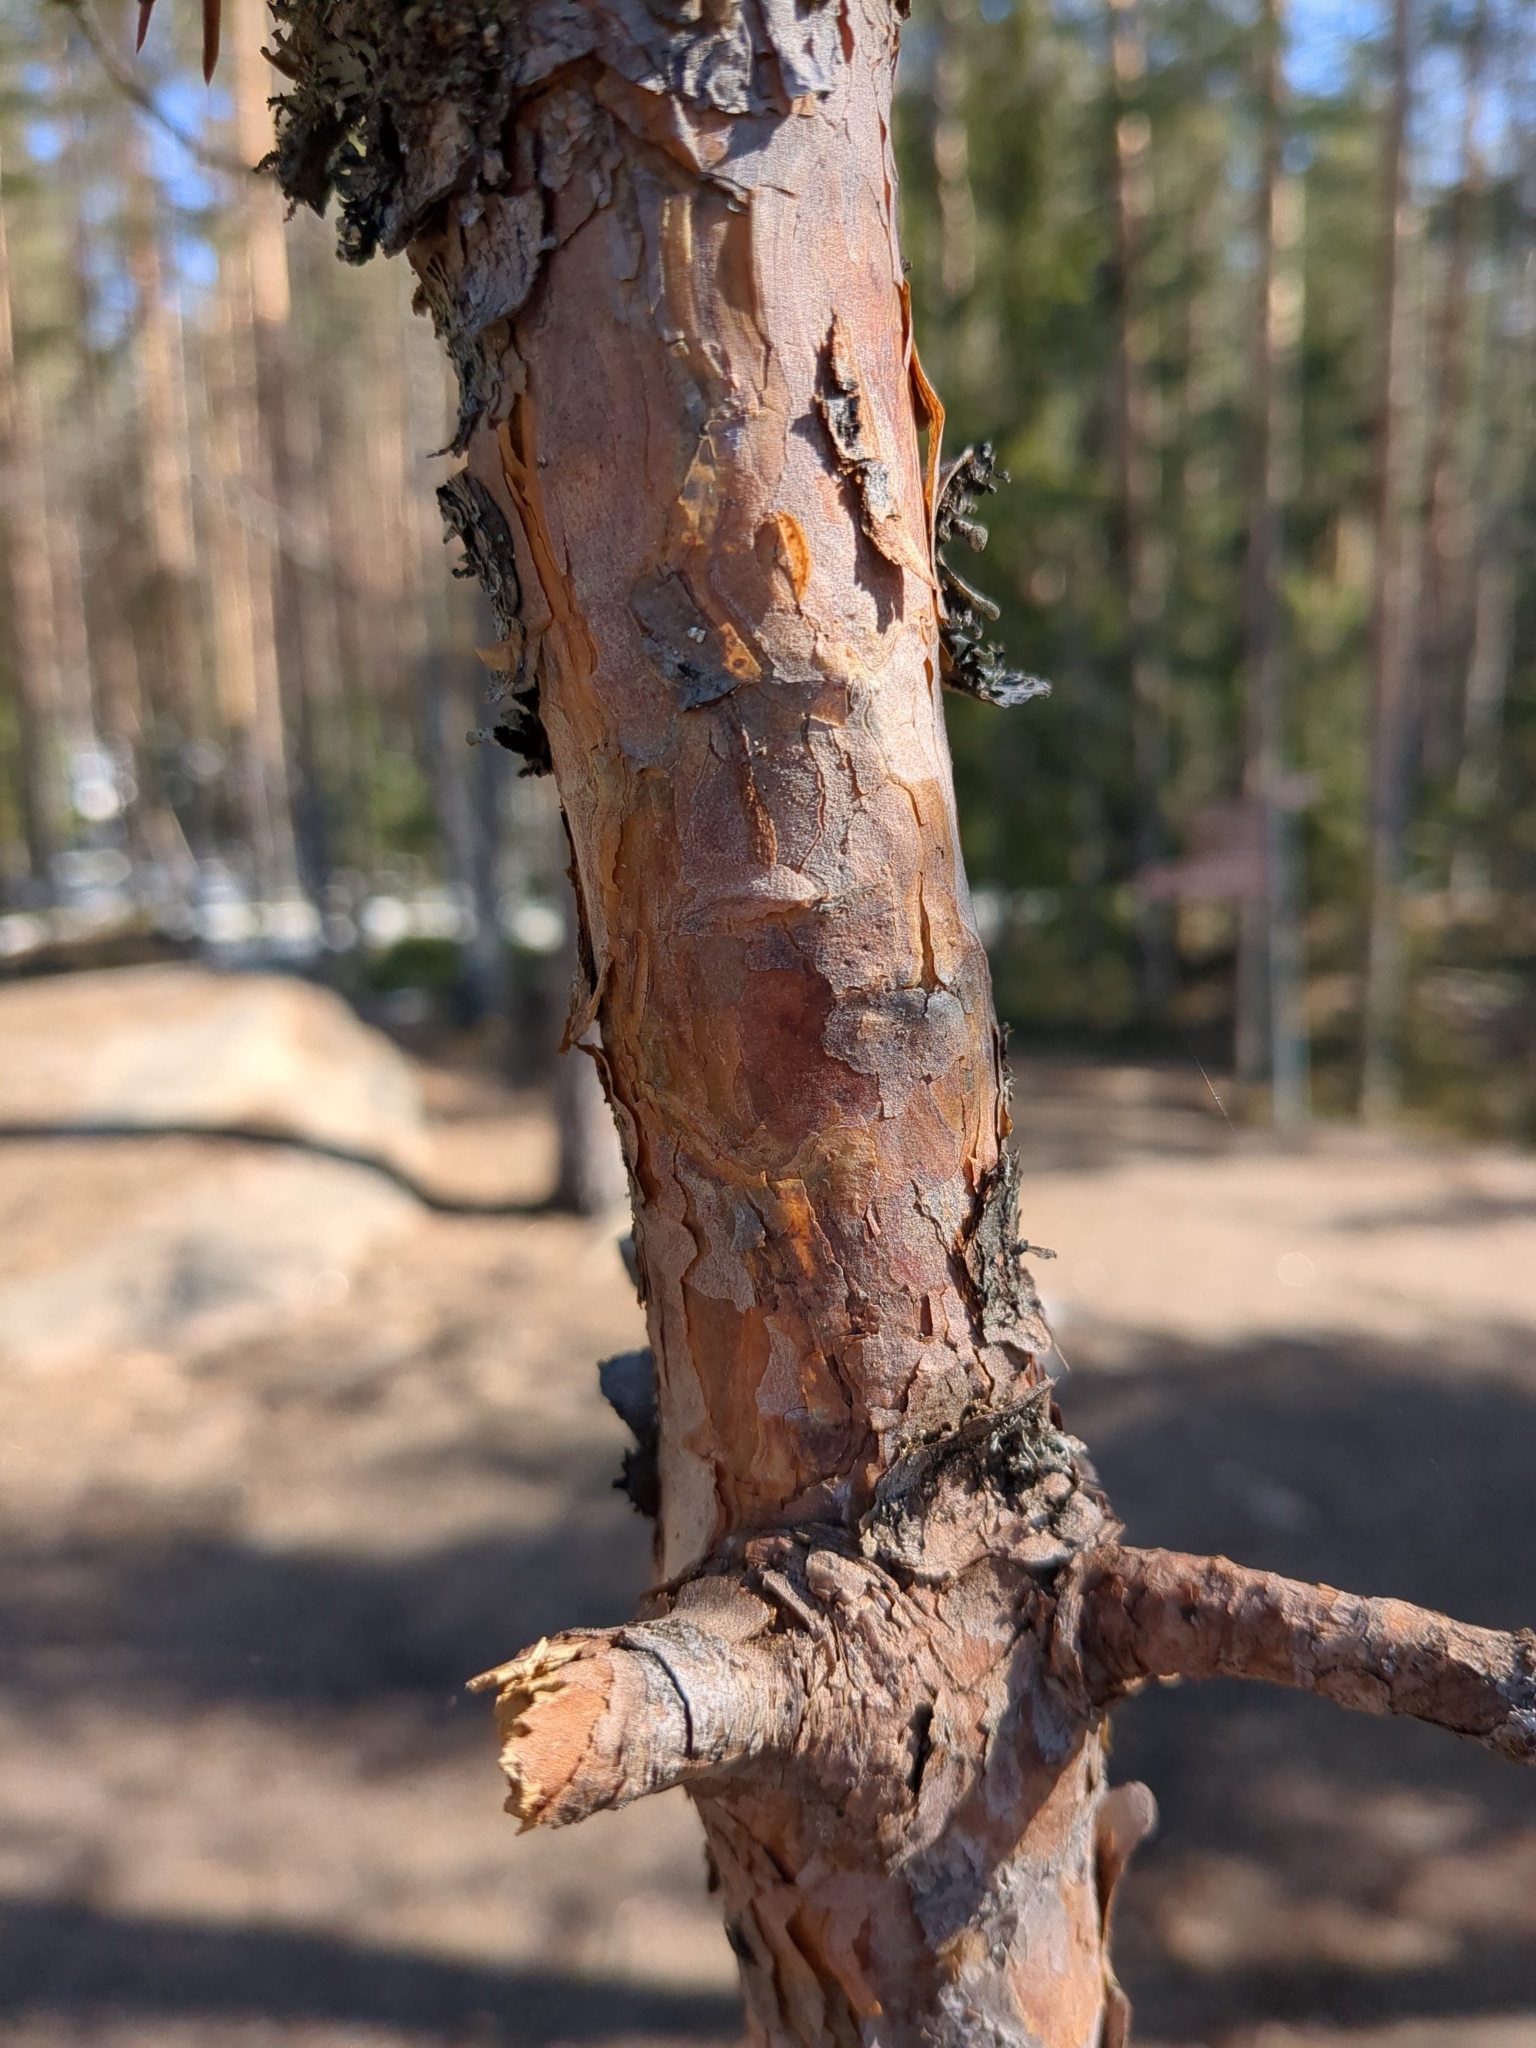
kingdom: Plantae
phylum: Tracheophyta
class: Pinopsida
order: Pinales
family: Pinaceae
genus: Pinus
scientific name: Pinus sylvestris
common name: Scots pine
